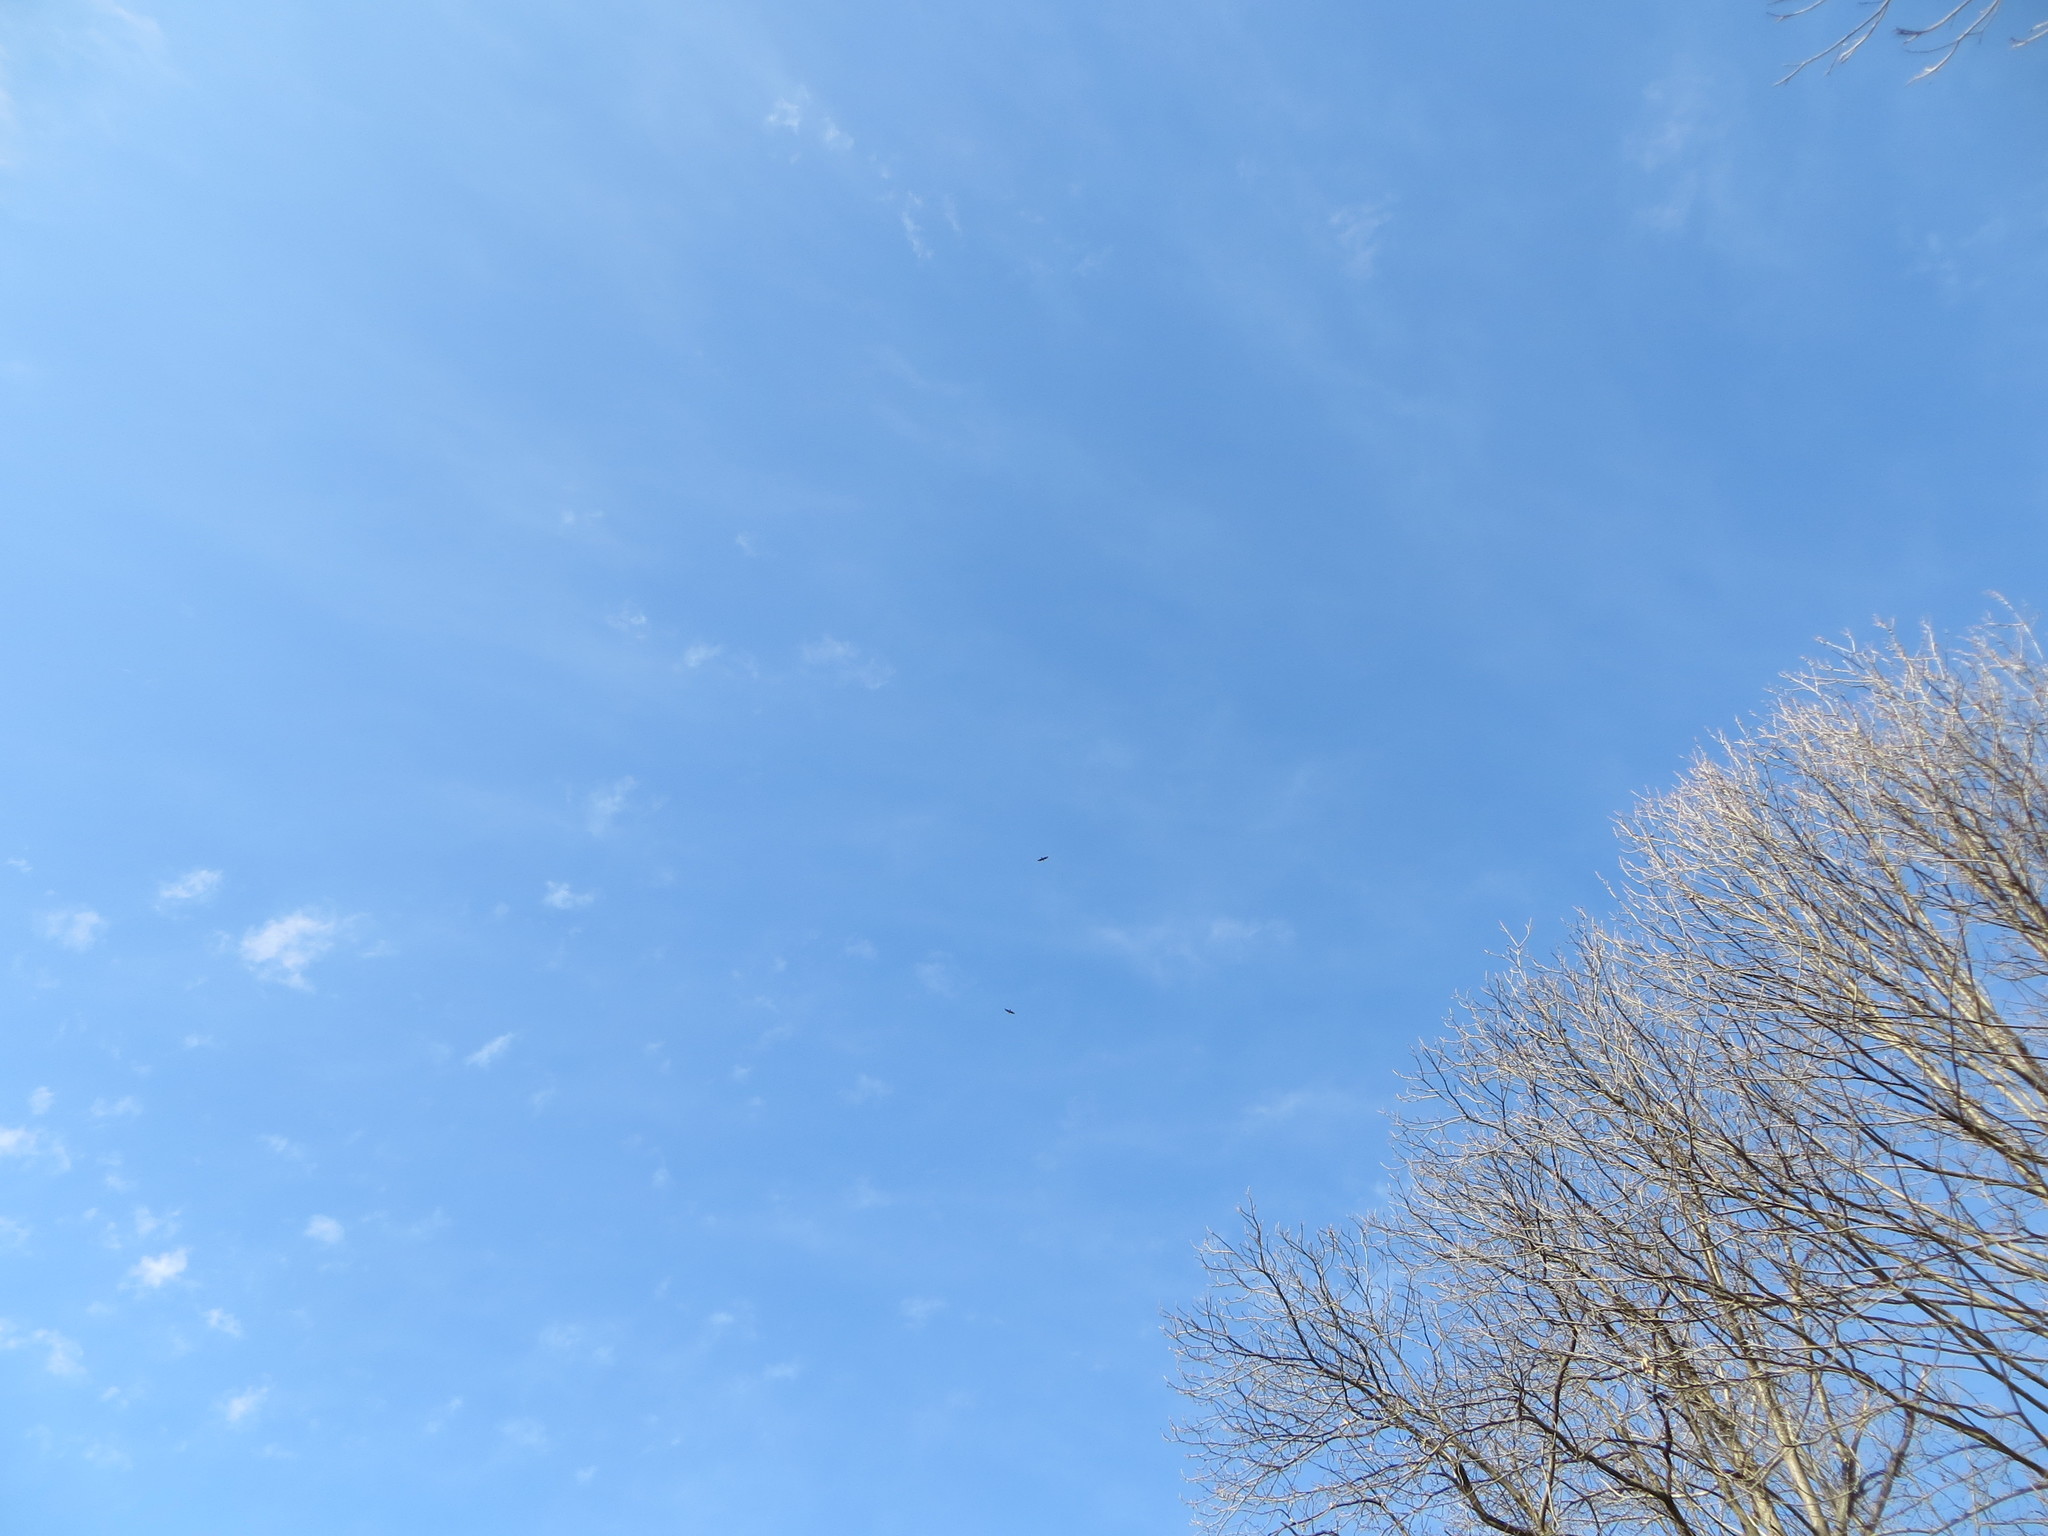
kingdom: Animalia
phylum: Chordata
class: Aves
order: Accipitriformes
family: Accipitridae
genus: Buteo
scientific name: Buteo buteo
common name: Common buzzard
